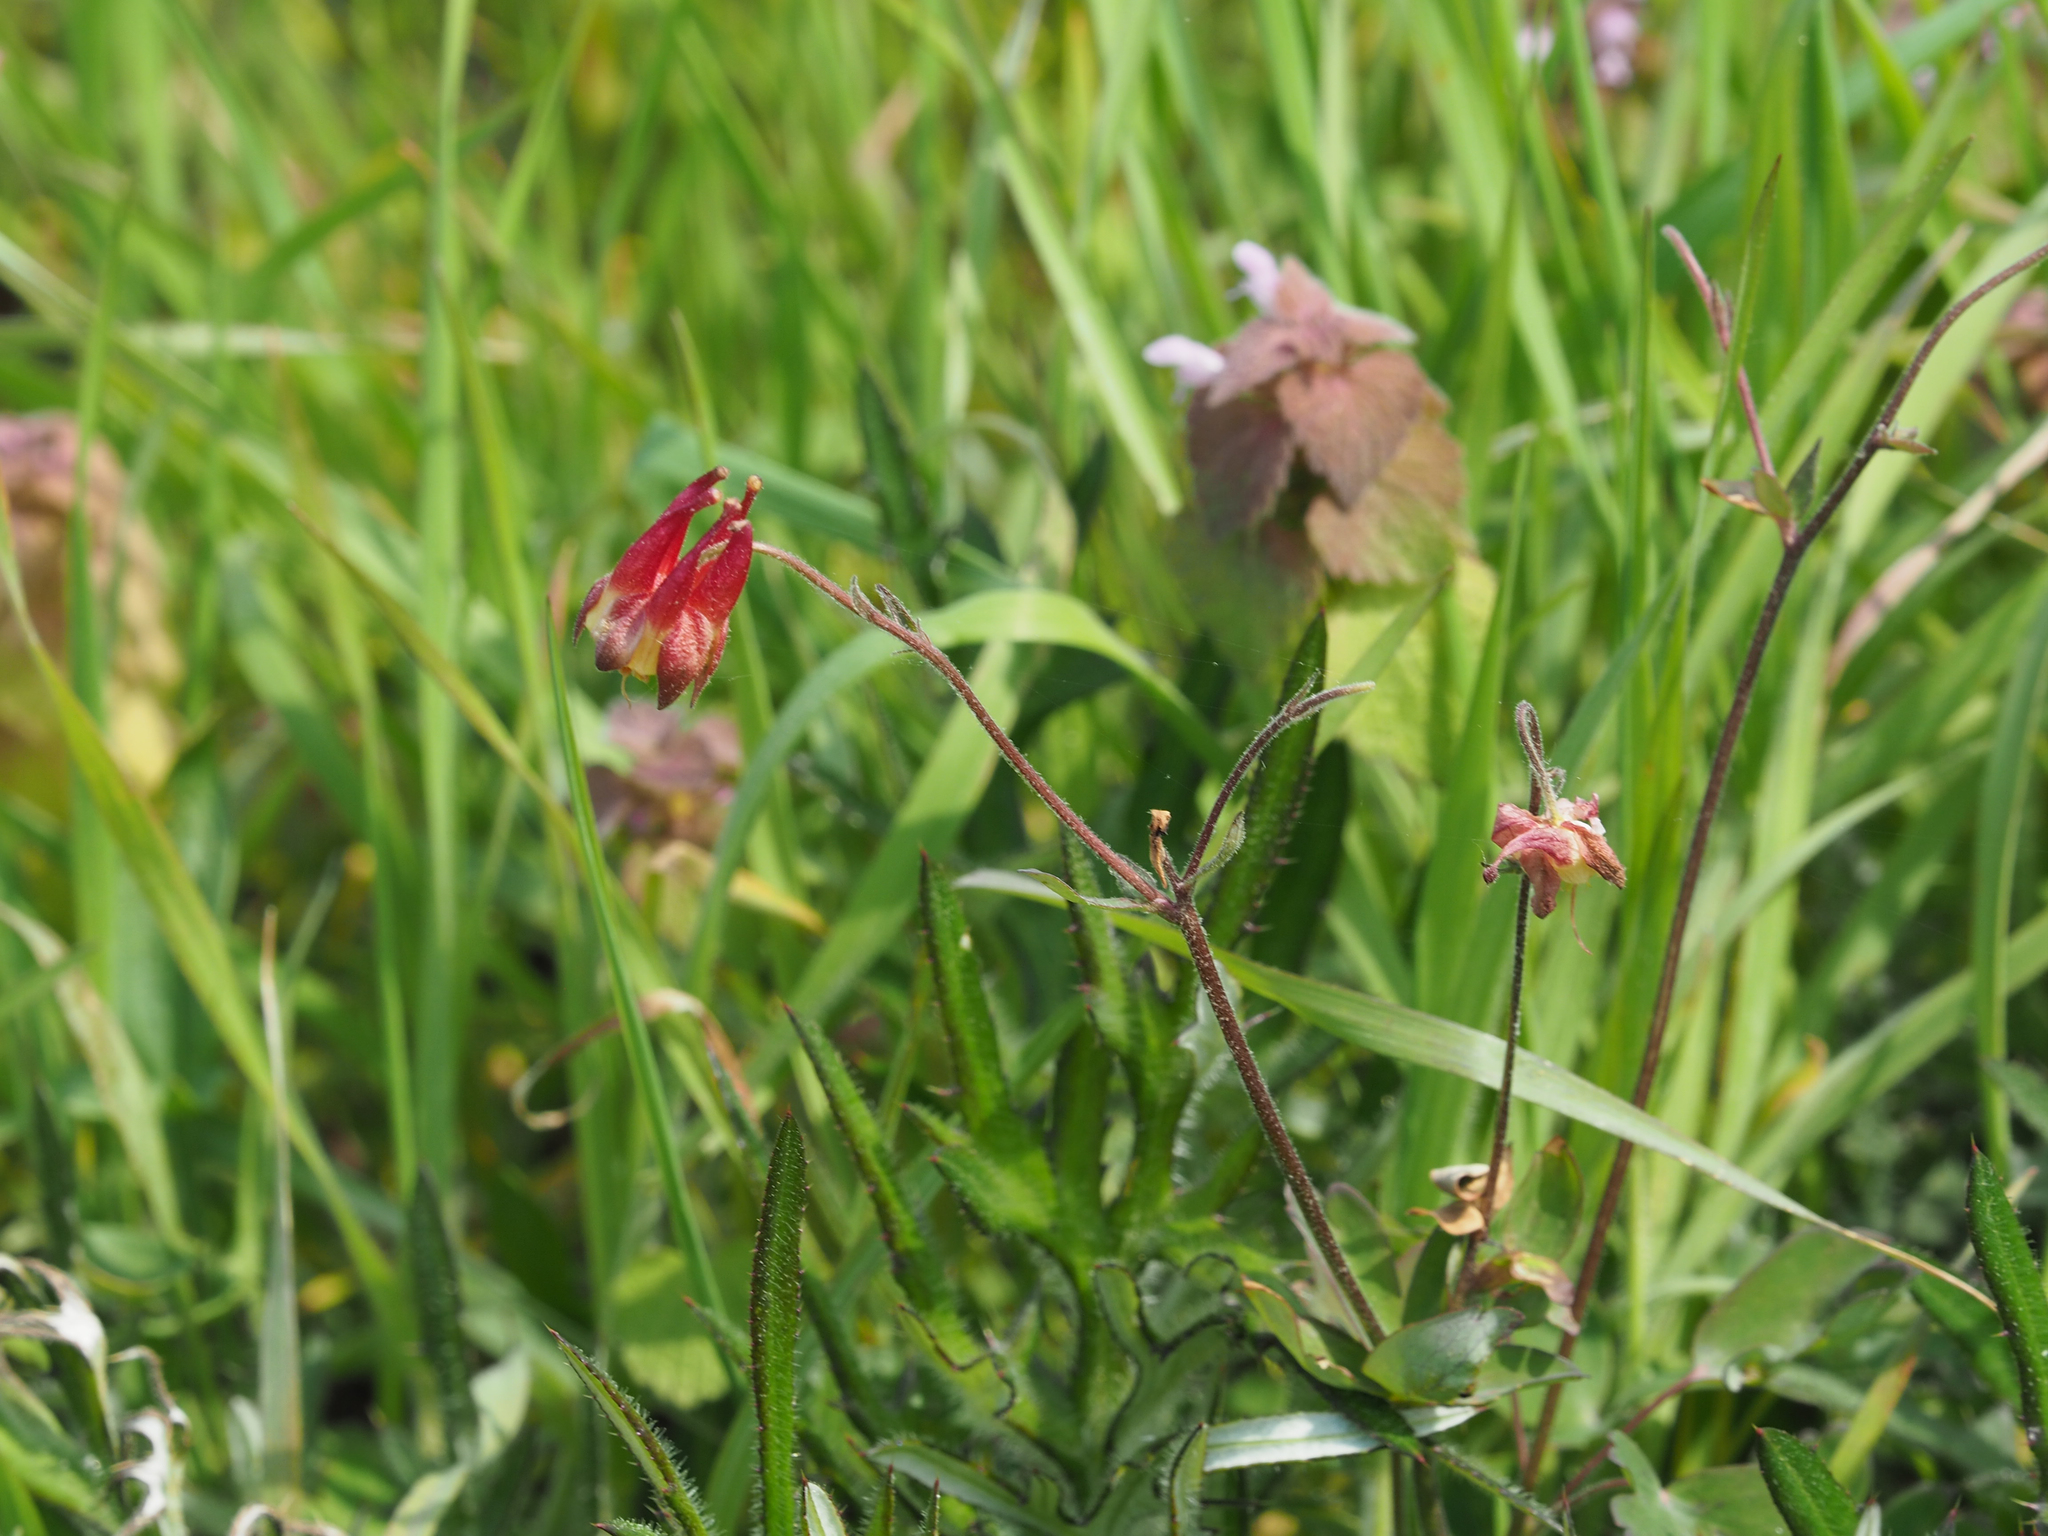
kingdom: Plantae
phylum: Tracheophyta
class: Magnoliopsida
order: Ranunculales
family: Ranunculaceae
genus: Aquilegia
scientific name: Aquilegia canadensis
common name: American columbine
